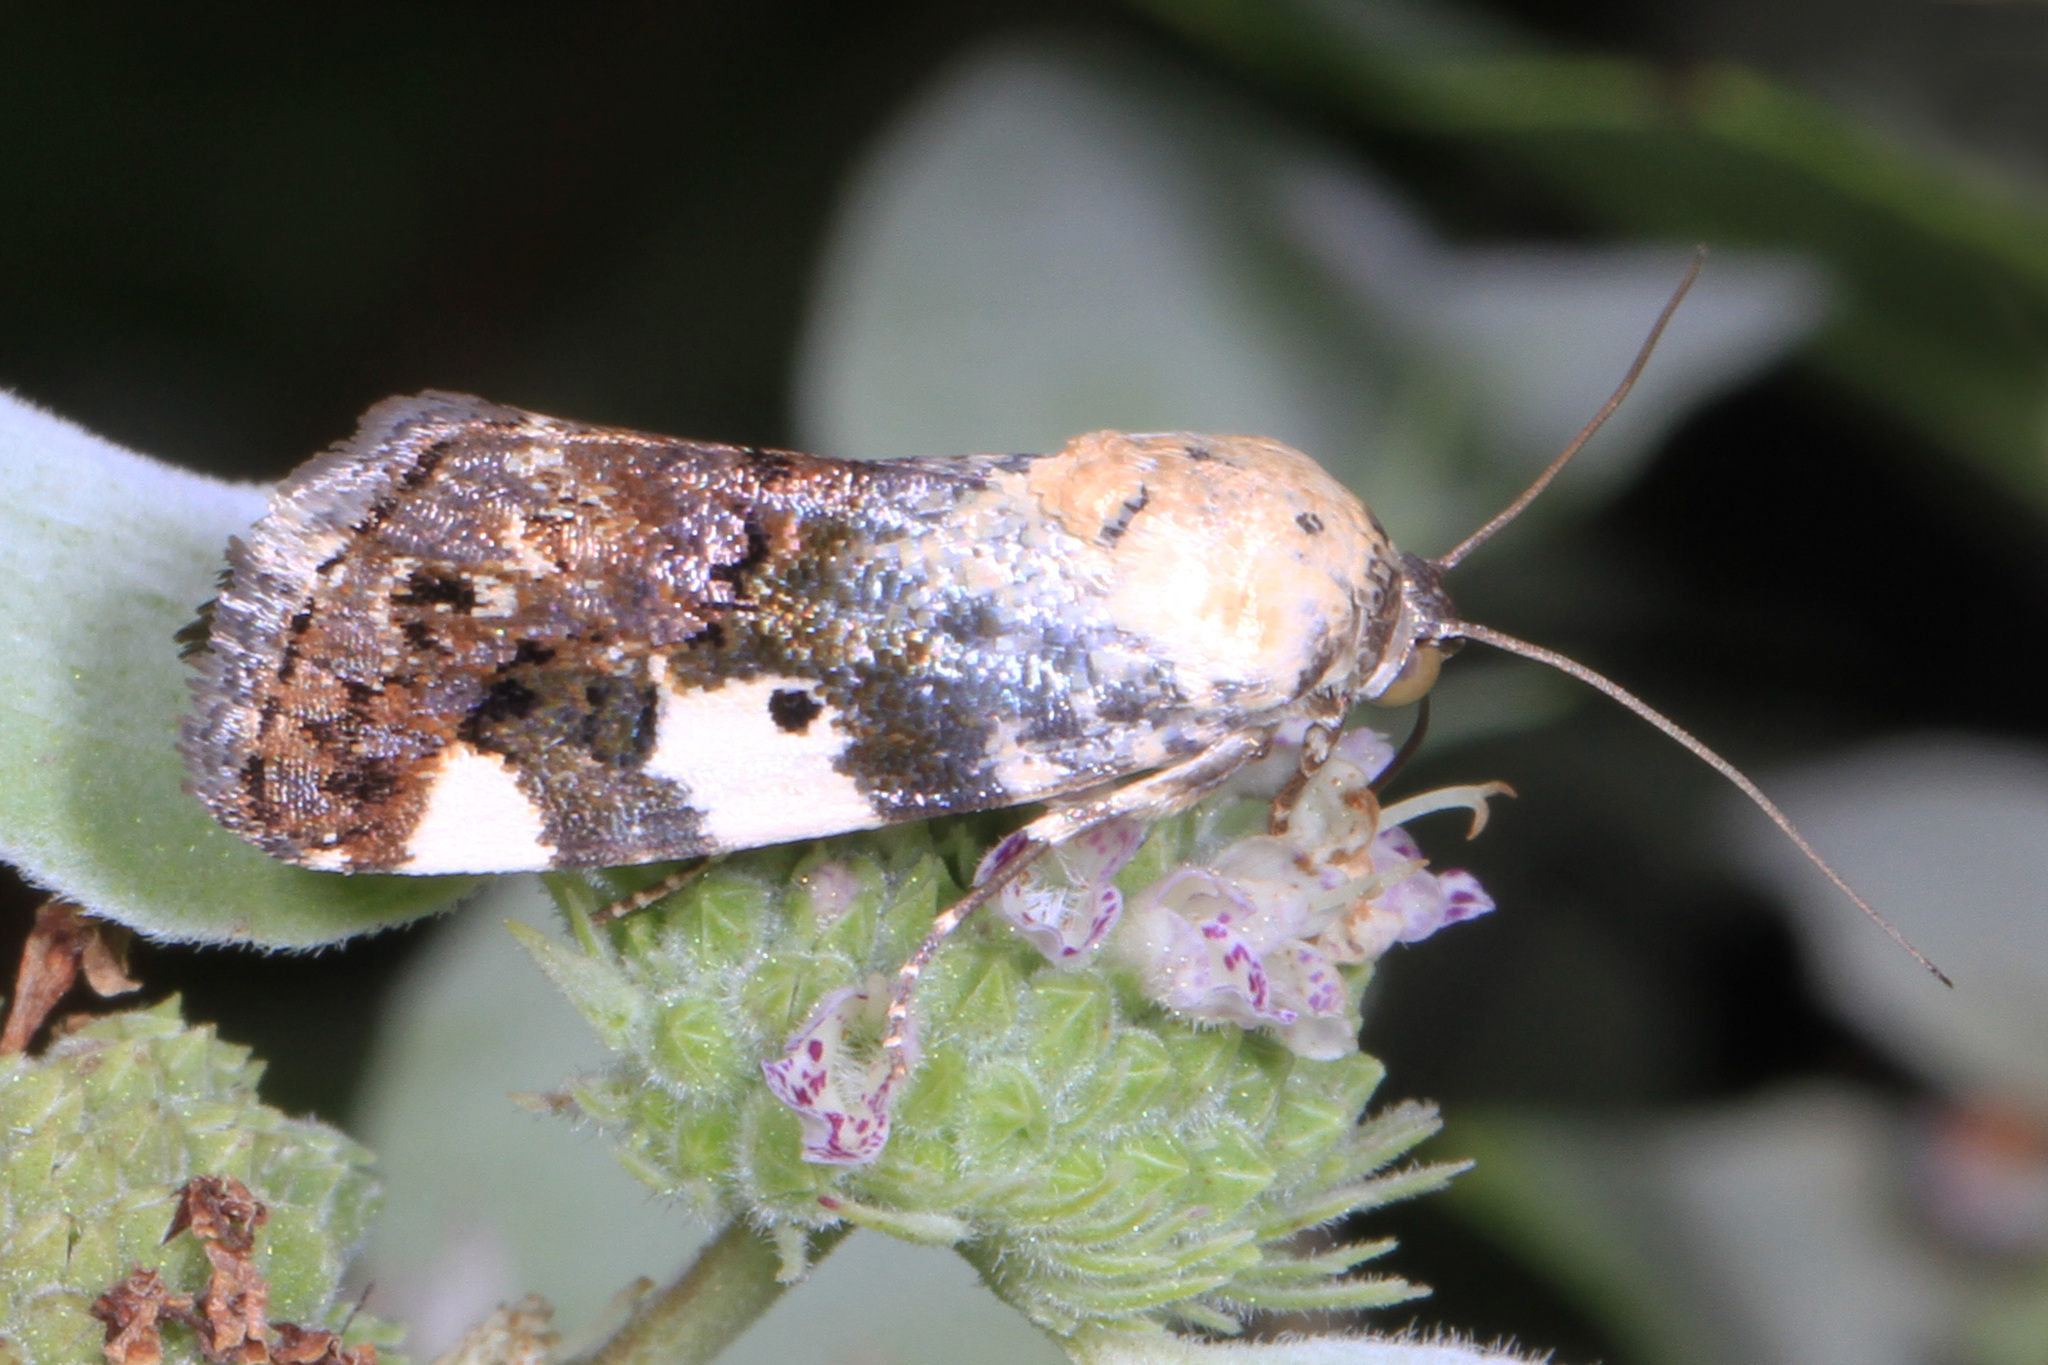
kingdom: Animalia
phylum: Arthropoda
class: Insecta
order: Lepidoptera
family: Noctuidae
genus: Acontia
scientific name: Acontia aprica
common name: Nun
